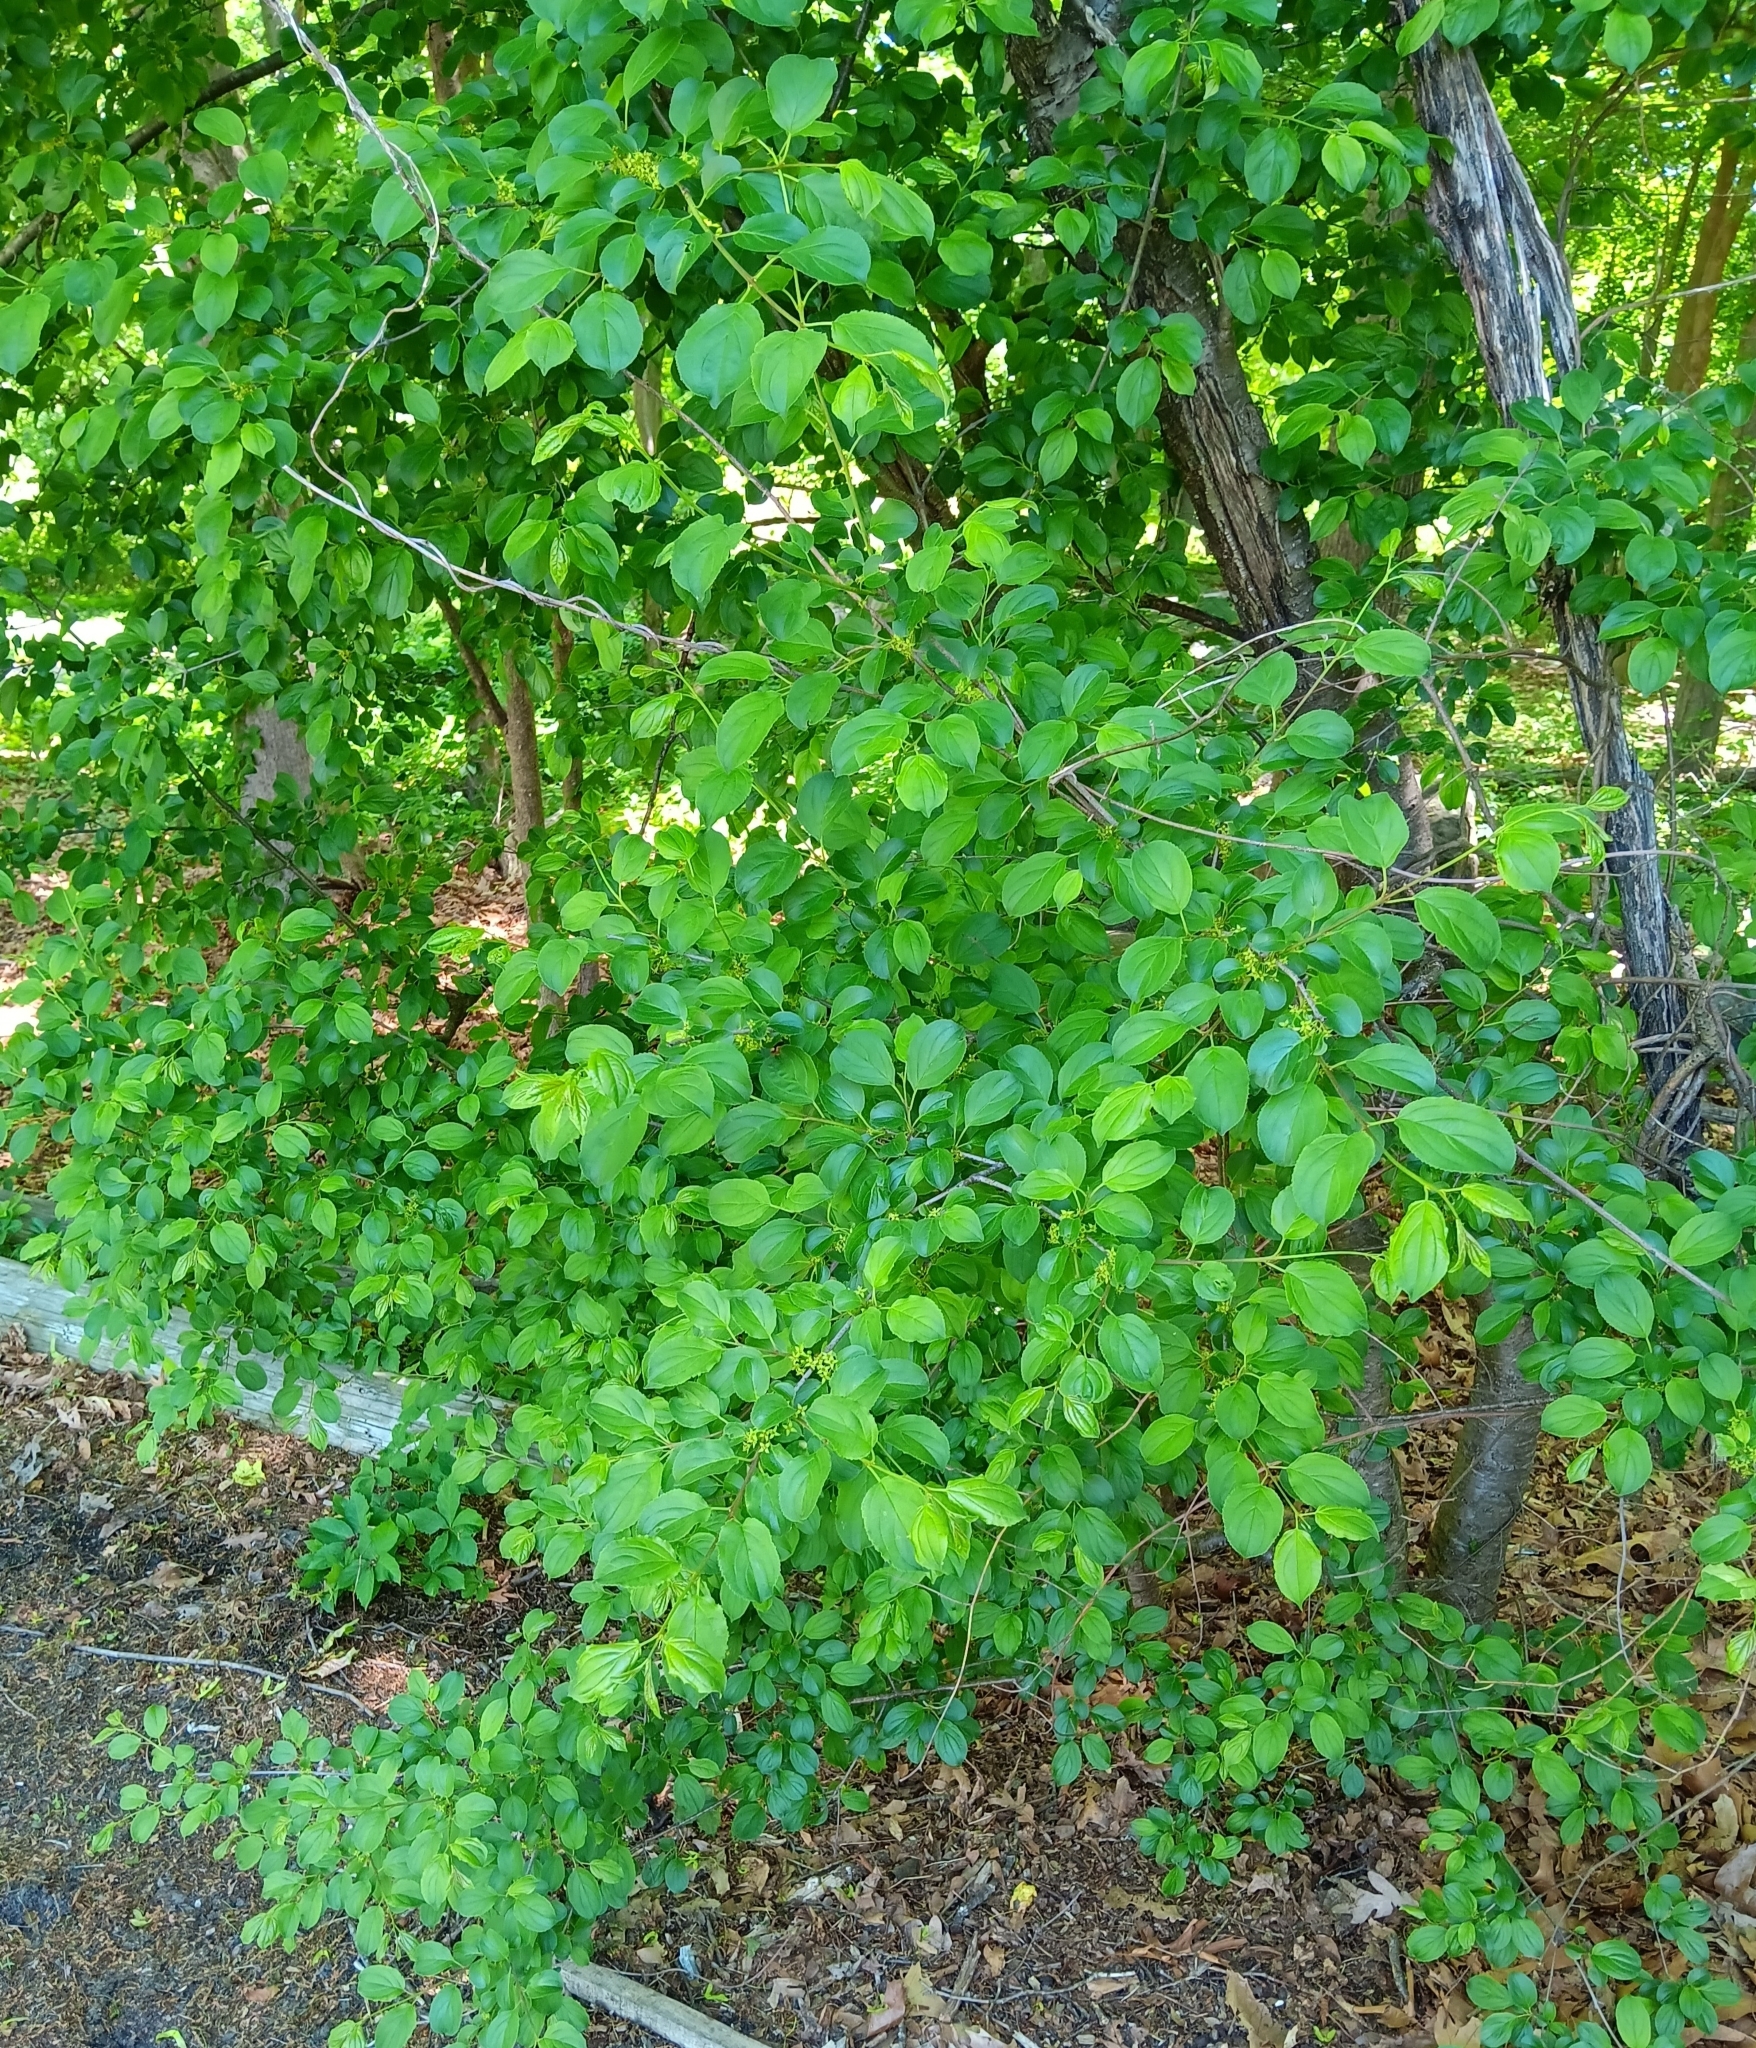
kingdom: Plantae
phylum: Tracheophyta
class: Magnoliopsida
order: Rosales
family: Rhamnaceae
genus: Rhamnus
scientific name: Rhamnus cathartica
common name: Common buckthorn
